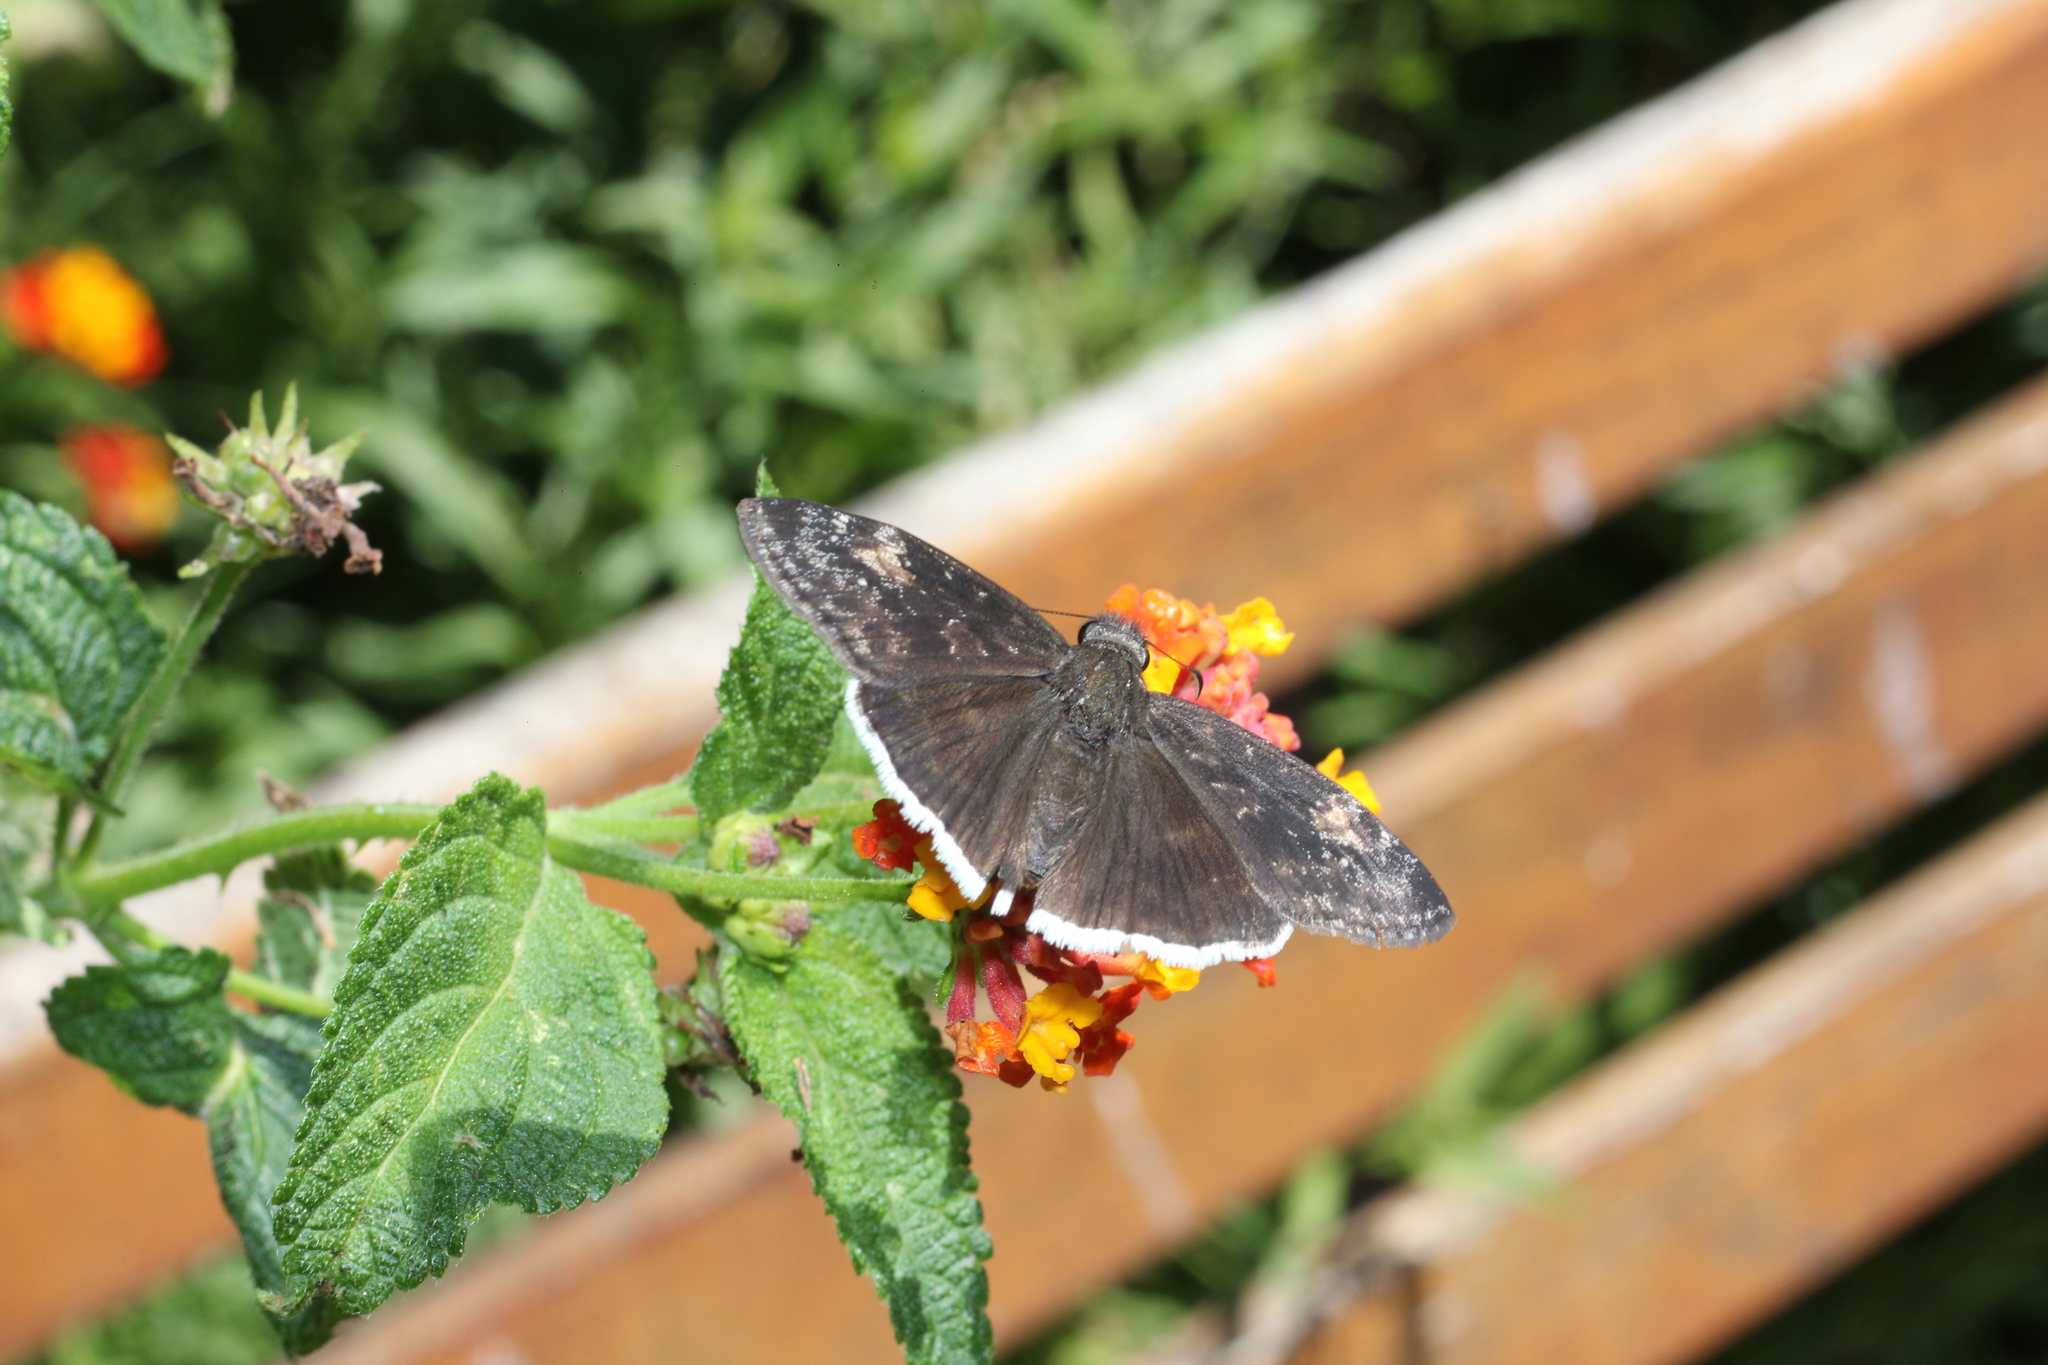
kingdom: Animalia
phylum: Arthropoda
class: Insecta
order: Lepidoptera
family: Hesperiidae
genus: Erynnis
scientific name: Erynnis funeralis
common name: Funereal duskywing
